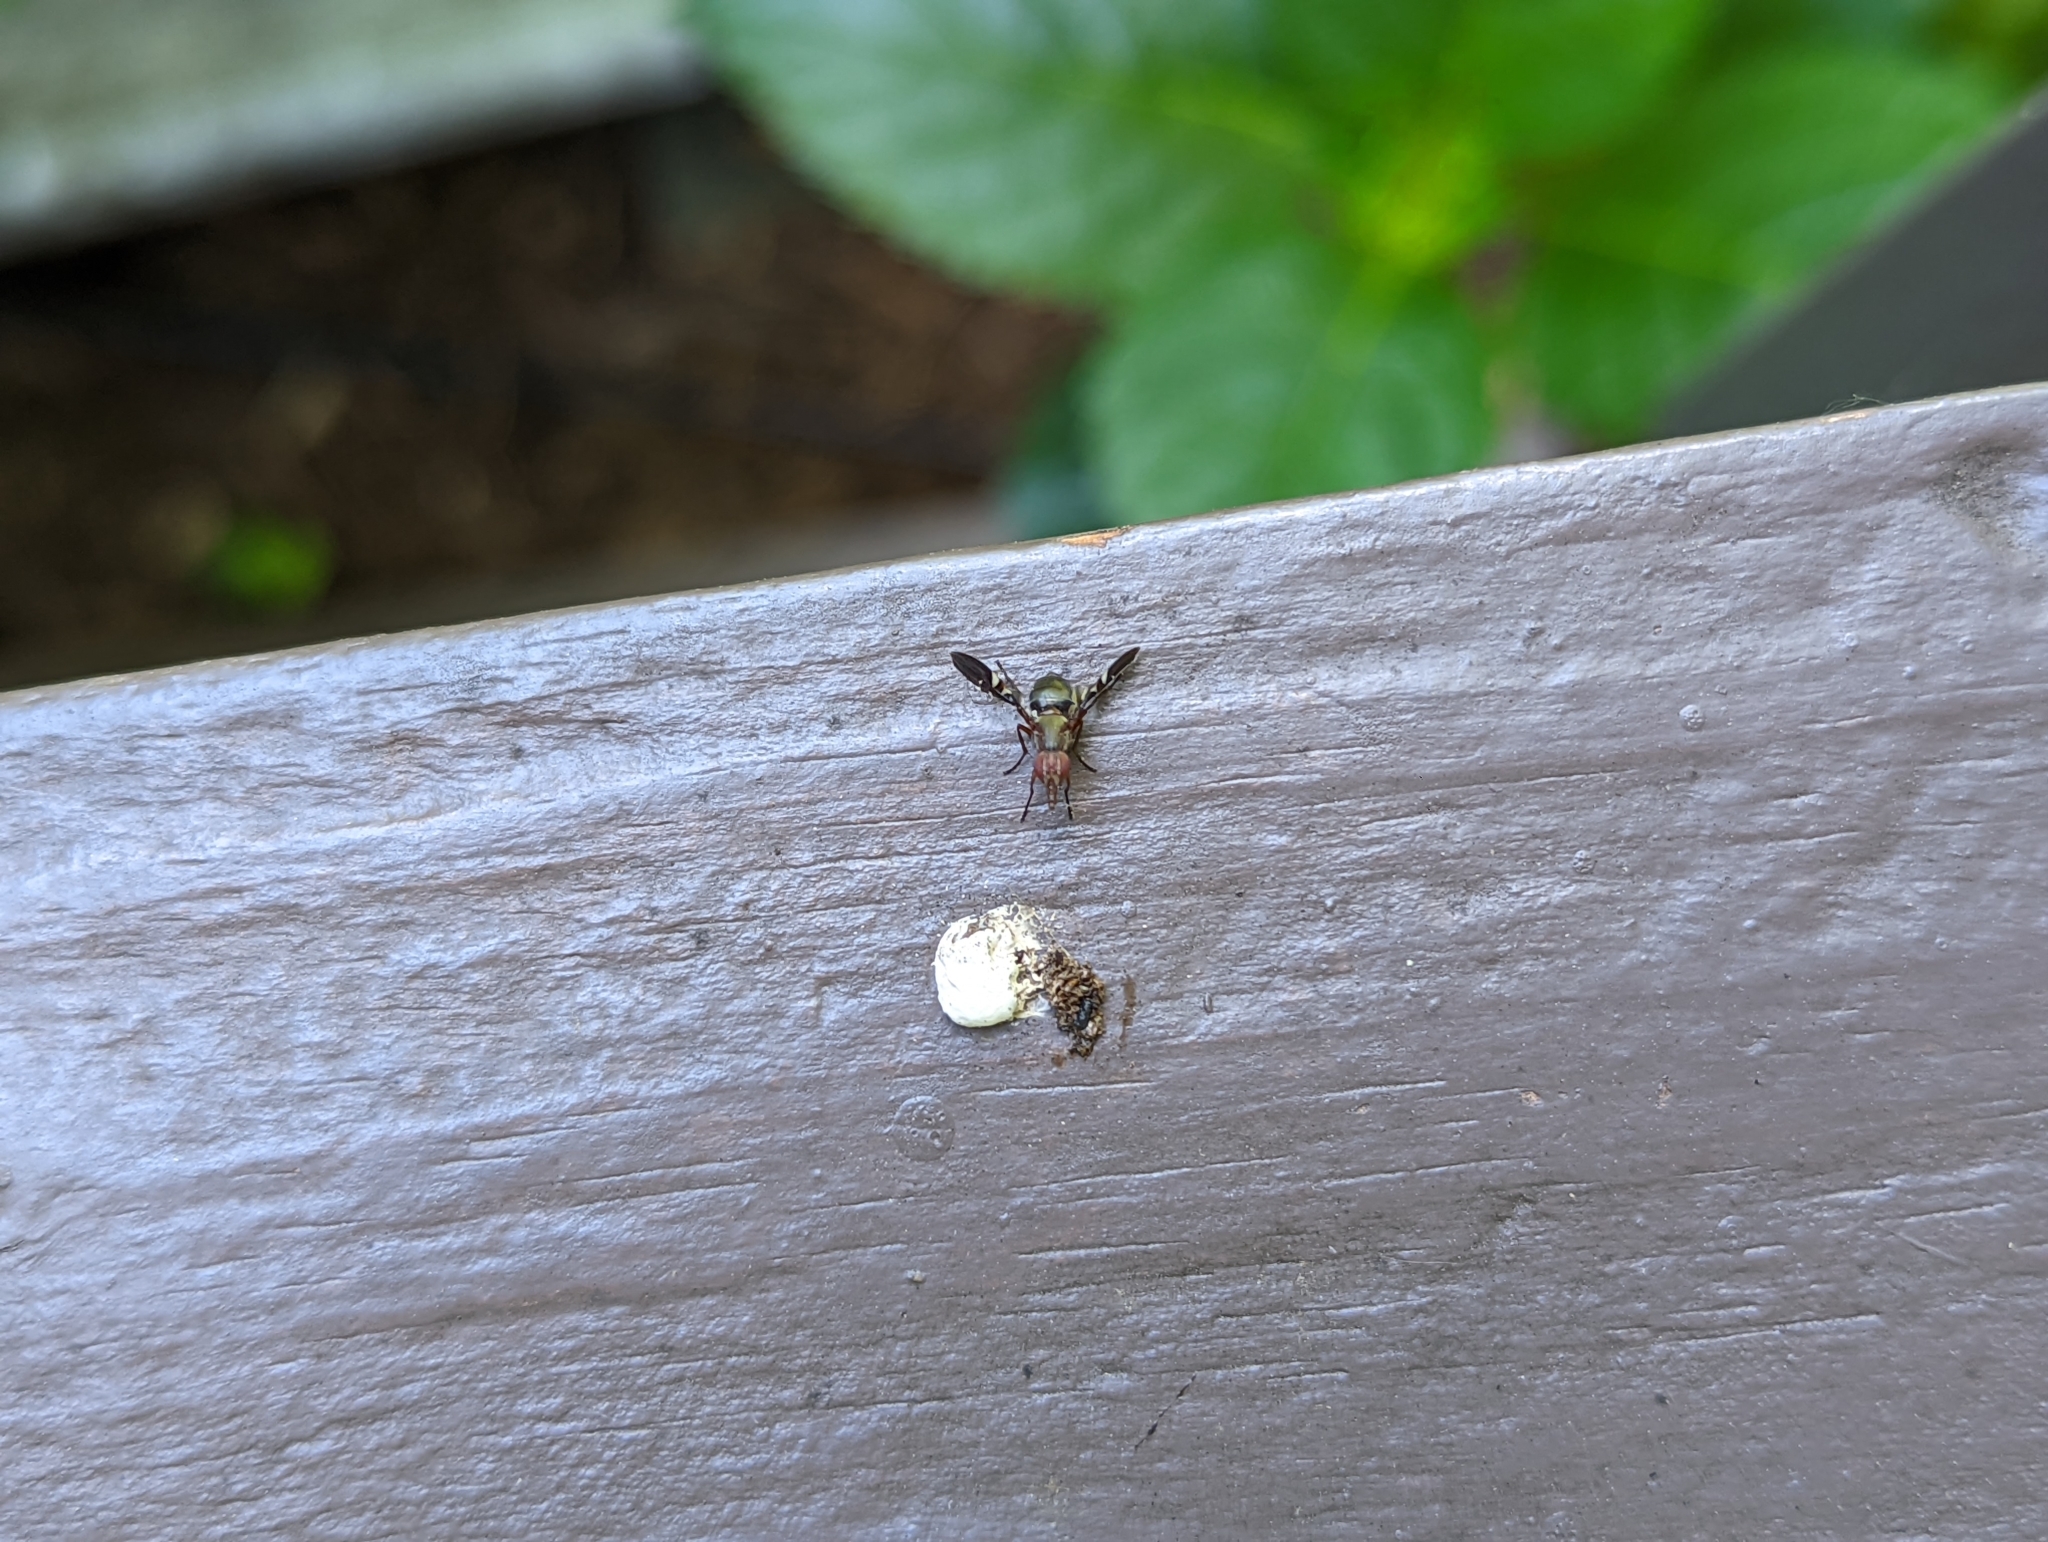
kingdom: Animalia
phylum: Arthropoda
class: Insecta
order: Diptera
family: Ulidiidae
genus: Delphinia
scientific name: Delphinia picta
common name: Common picture-winged fly
